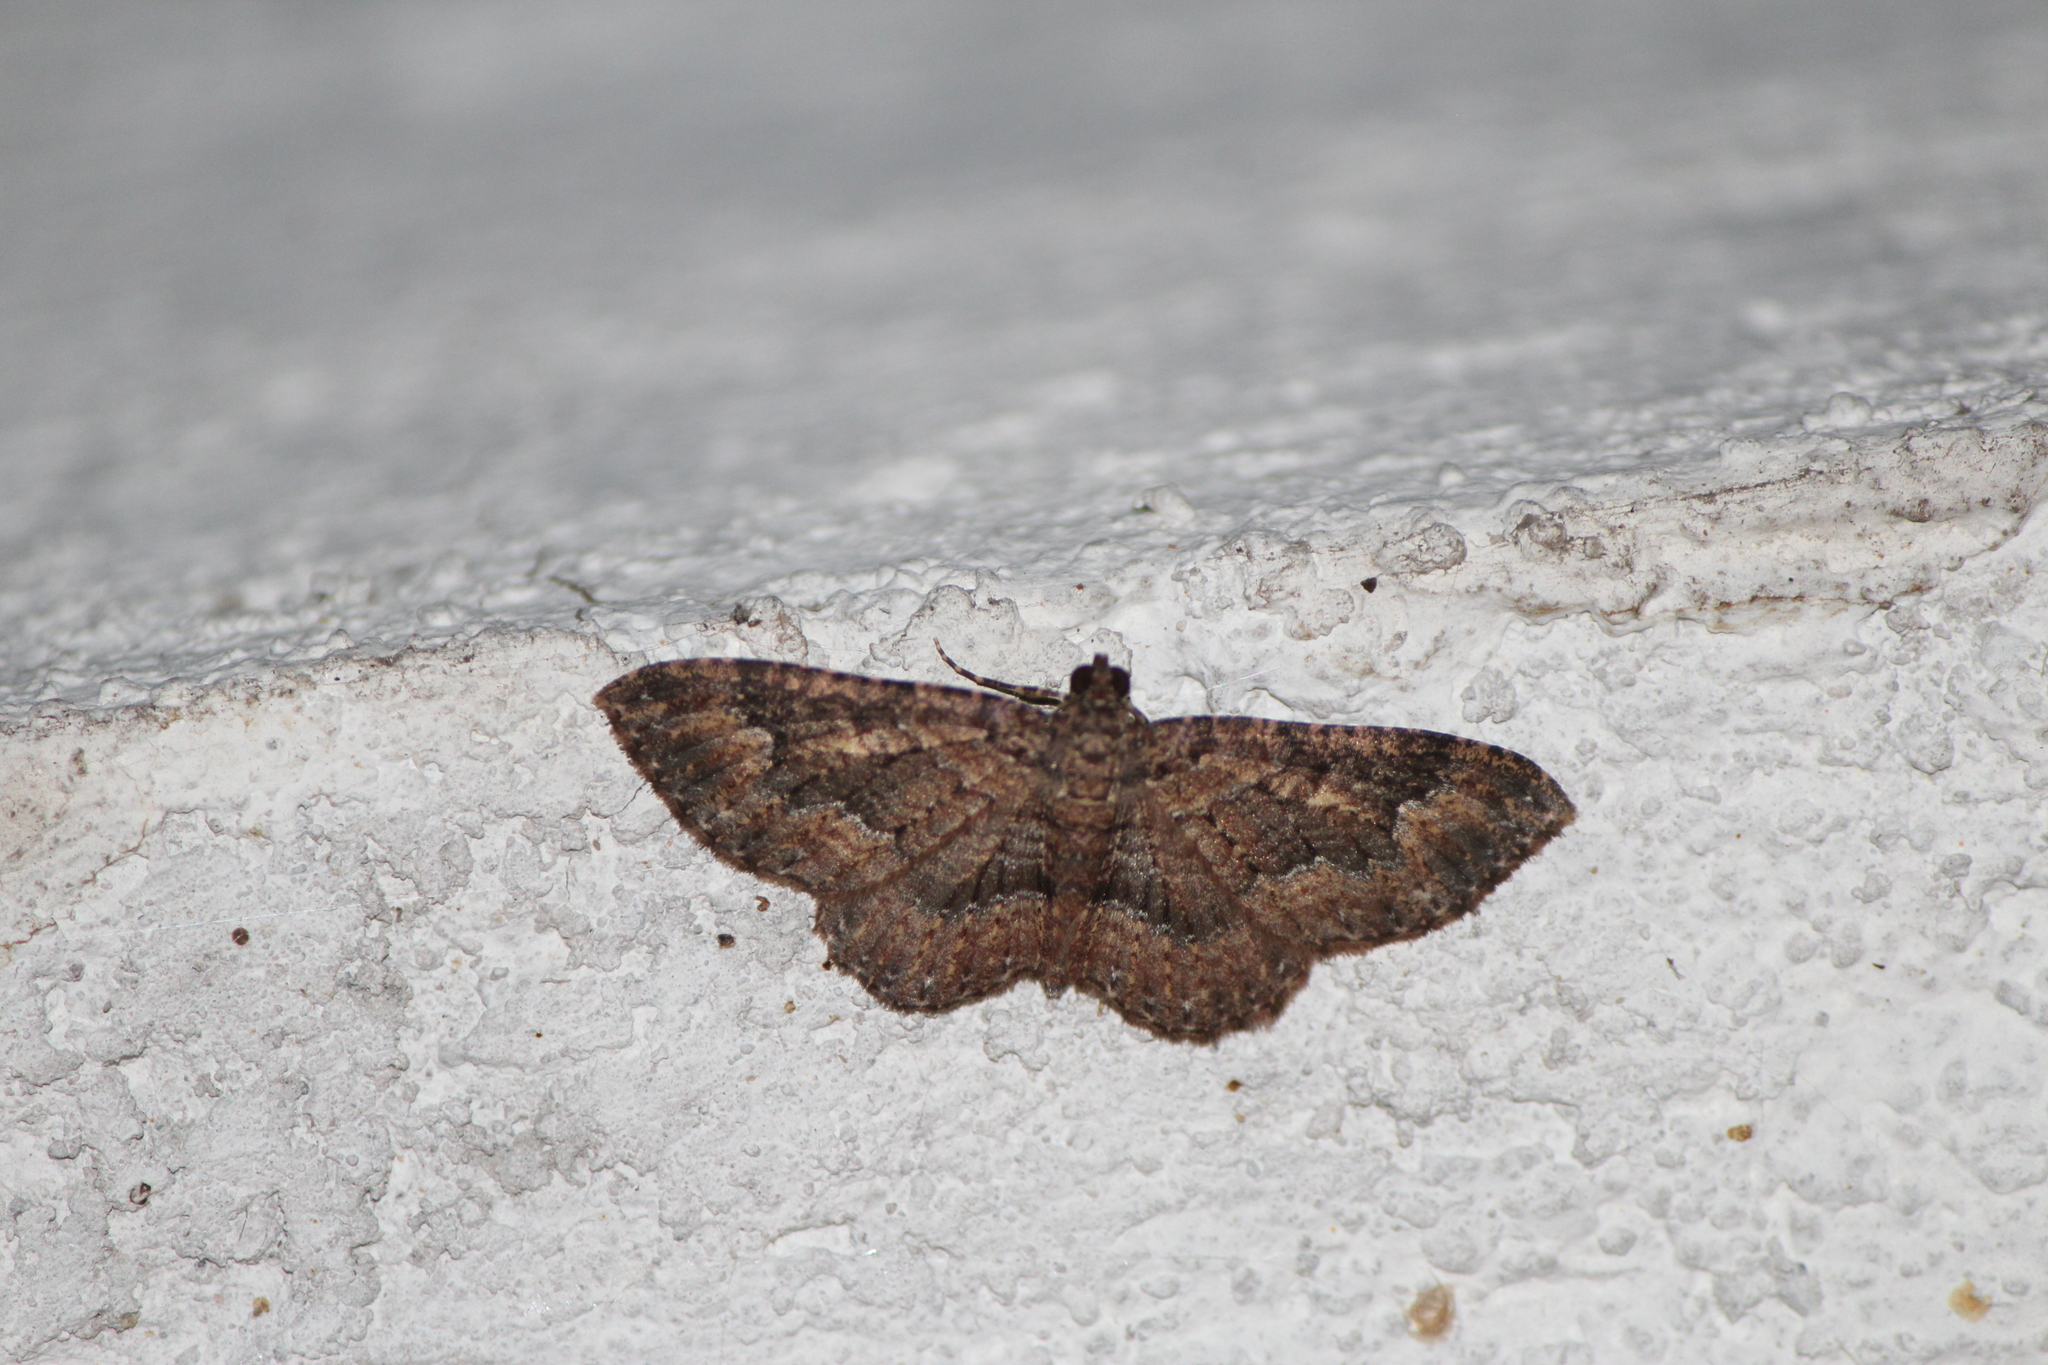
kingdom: Animalia
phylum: Arthropoda
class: Insecta
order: Lepidoptera
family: Geometridae
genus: Disclisioprocta
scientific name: Disclisioprocta stellata
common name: Somber carpet
